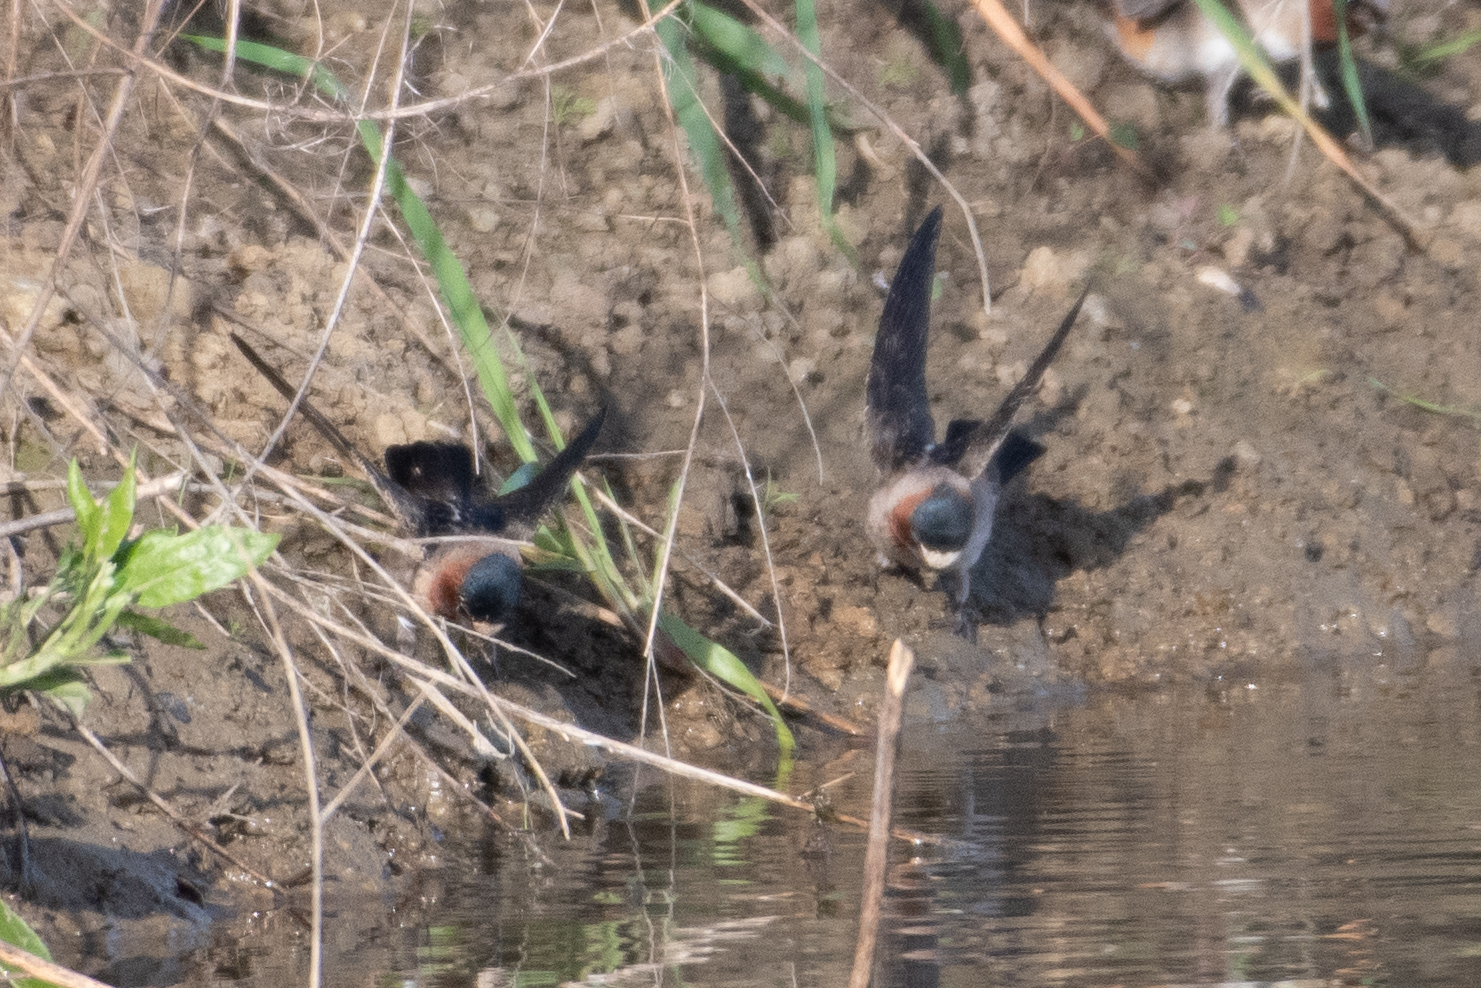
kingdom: Animalia
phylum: Chordata
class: Aves
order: Passeriformes
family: Hirundinidae
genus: Petrochelidon
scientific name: Petrochelidon pyrrhonota
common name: American cliff swallow
